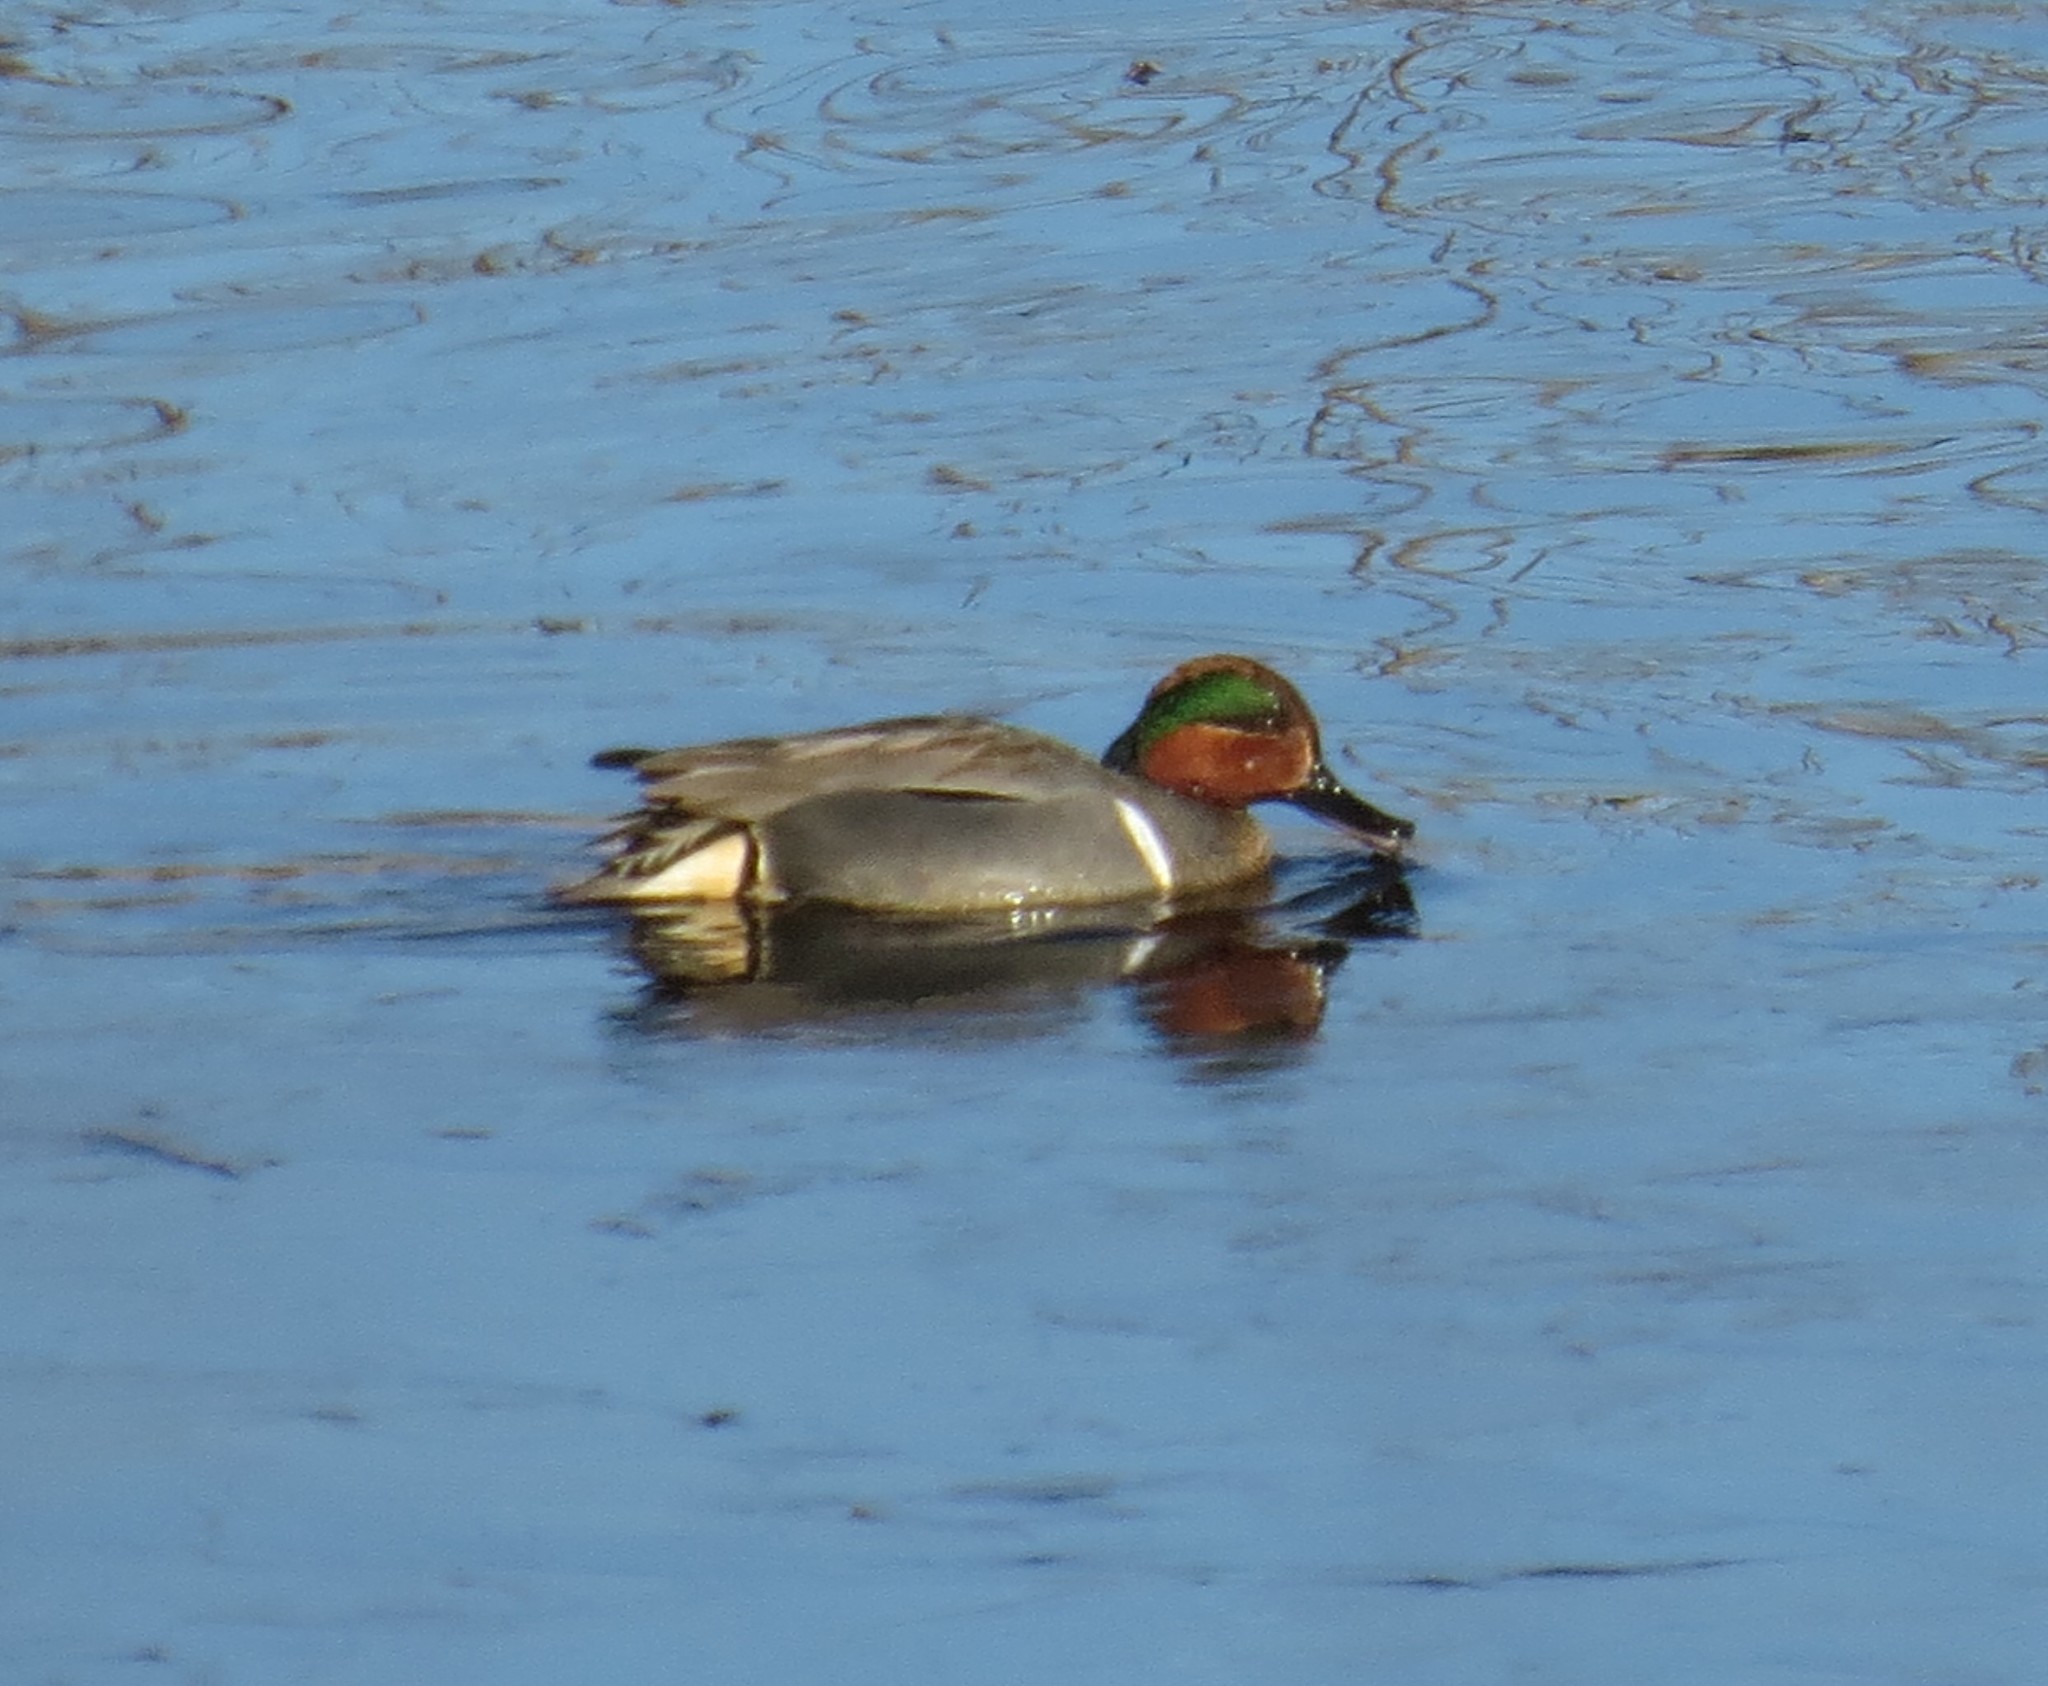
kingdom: Animalia
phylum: Chordata
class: Aves
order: Anseriformes
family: Anatidae
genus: Anas
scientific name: Anas crecca
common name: Eurasian teal
